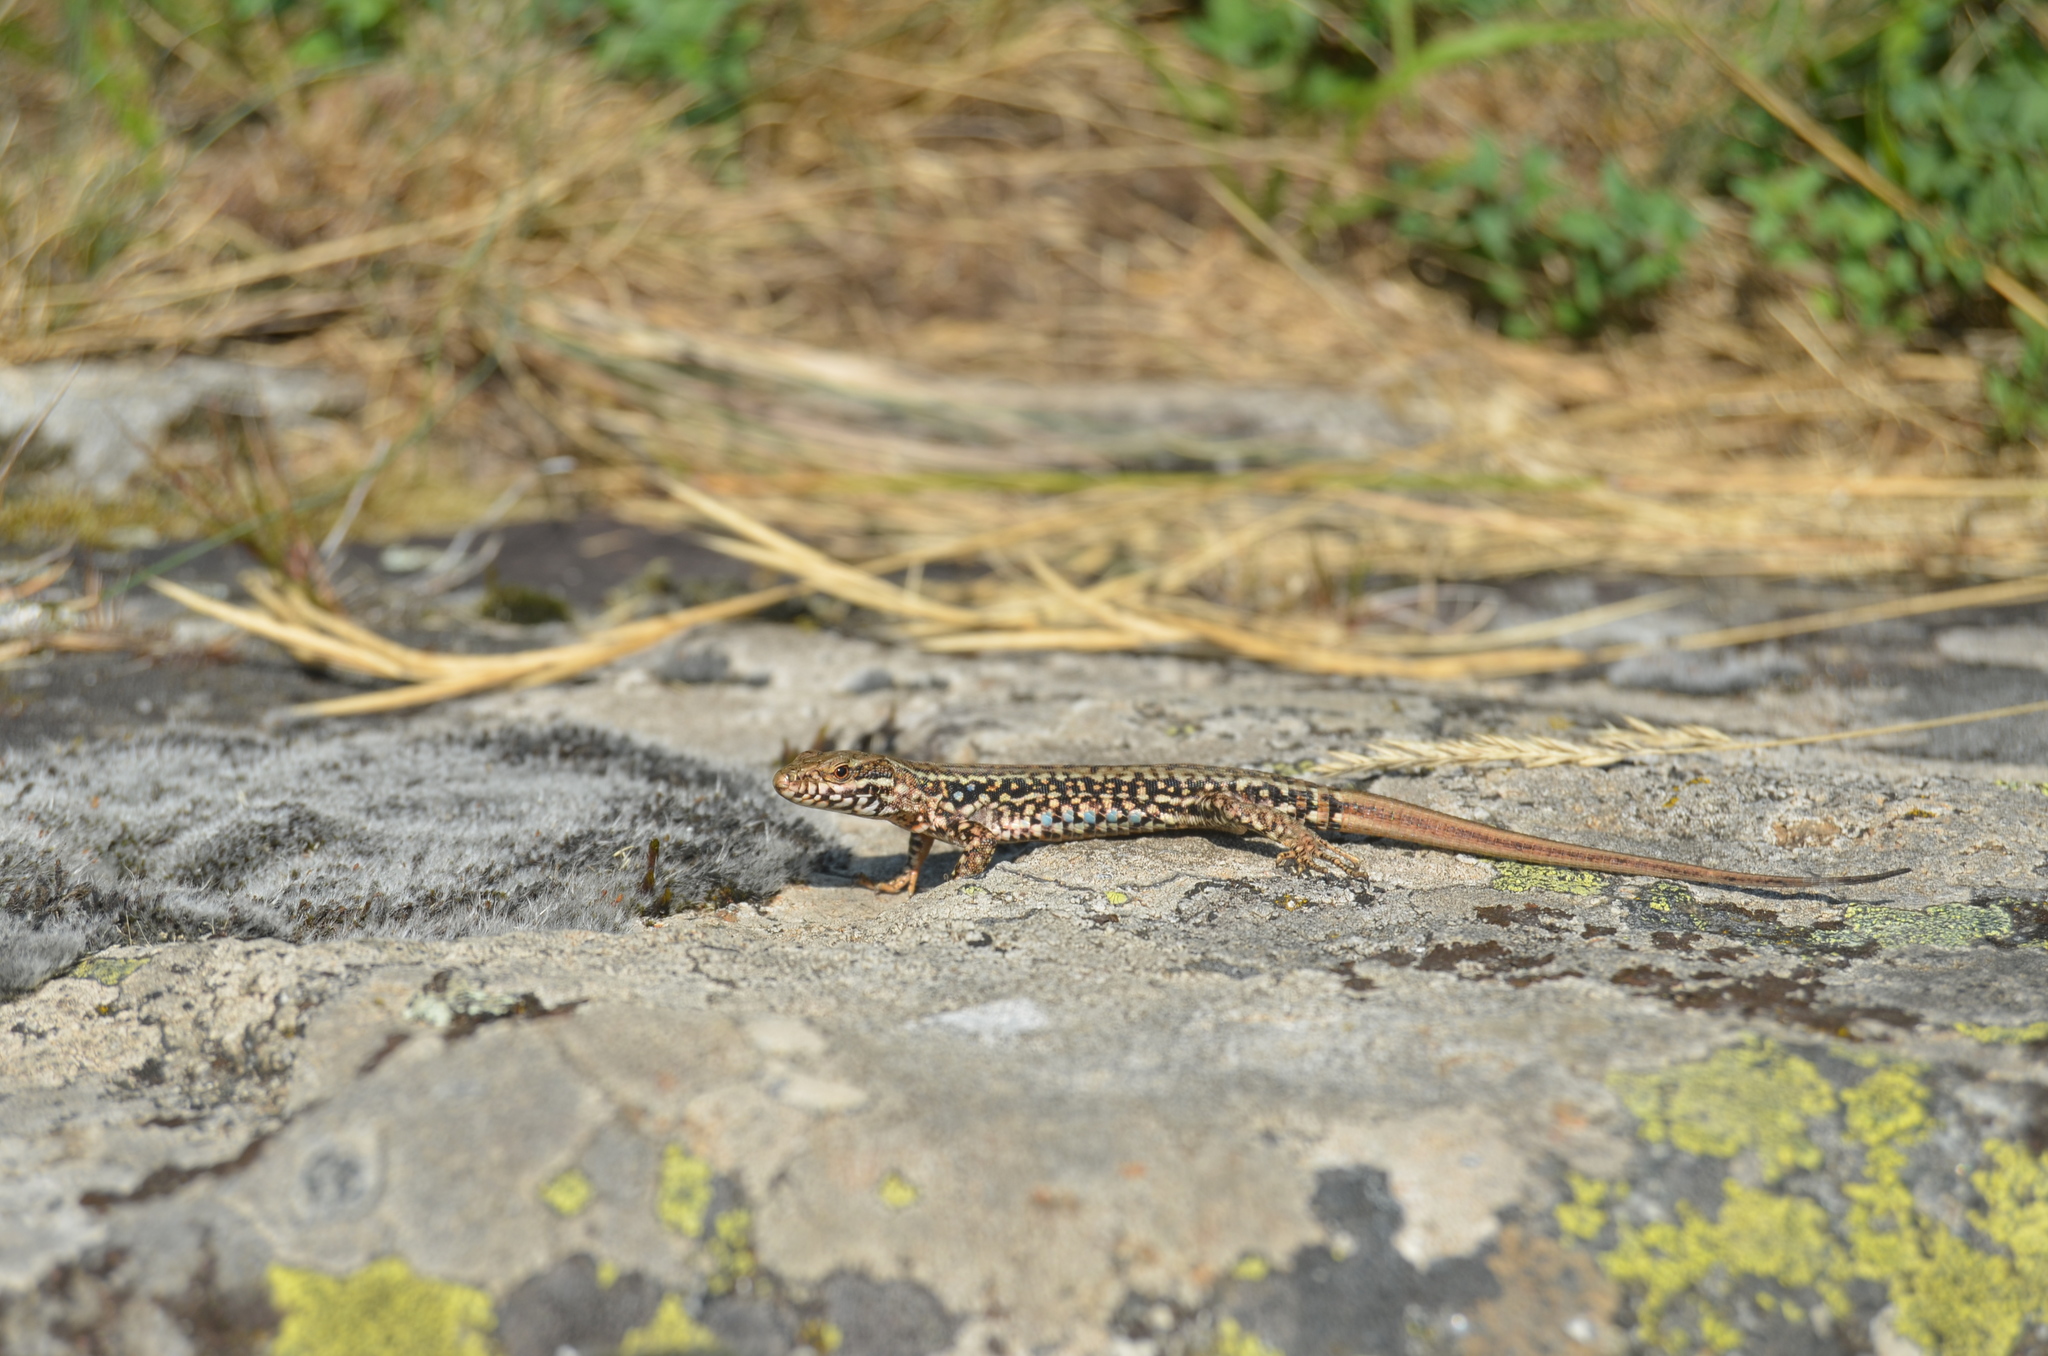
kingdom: Animalia
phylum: Chordata
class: Squamata
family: Lacertidae
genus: Podarcis
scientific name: Podarcis muralis
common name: Common wall lizard
